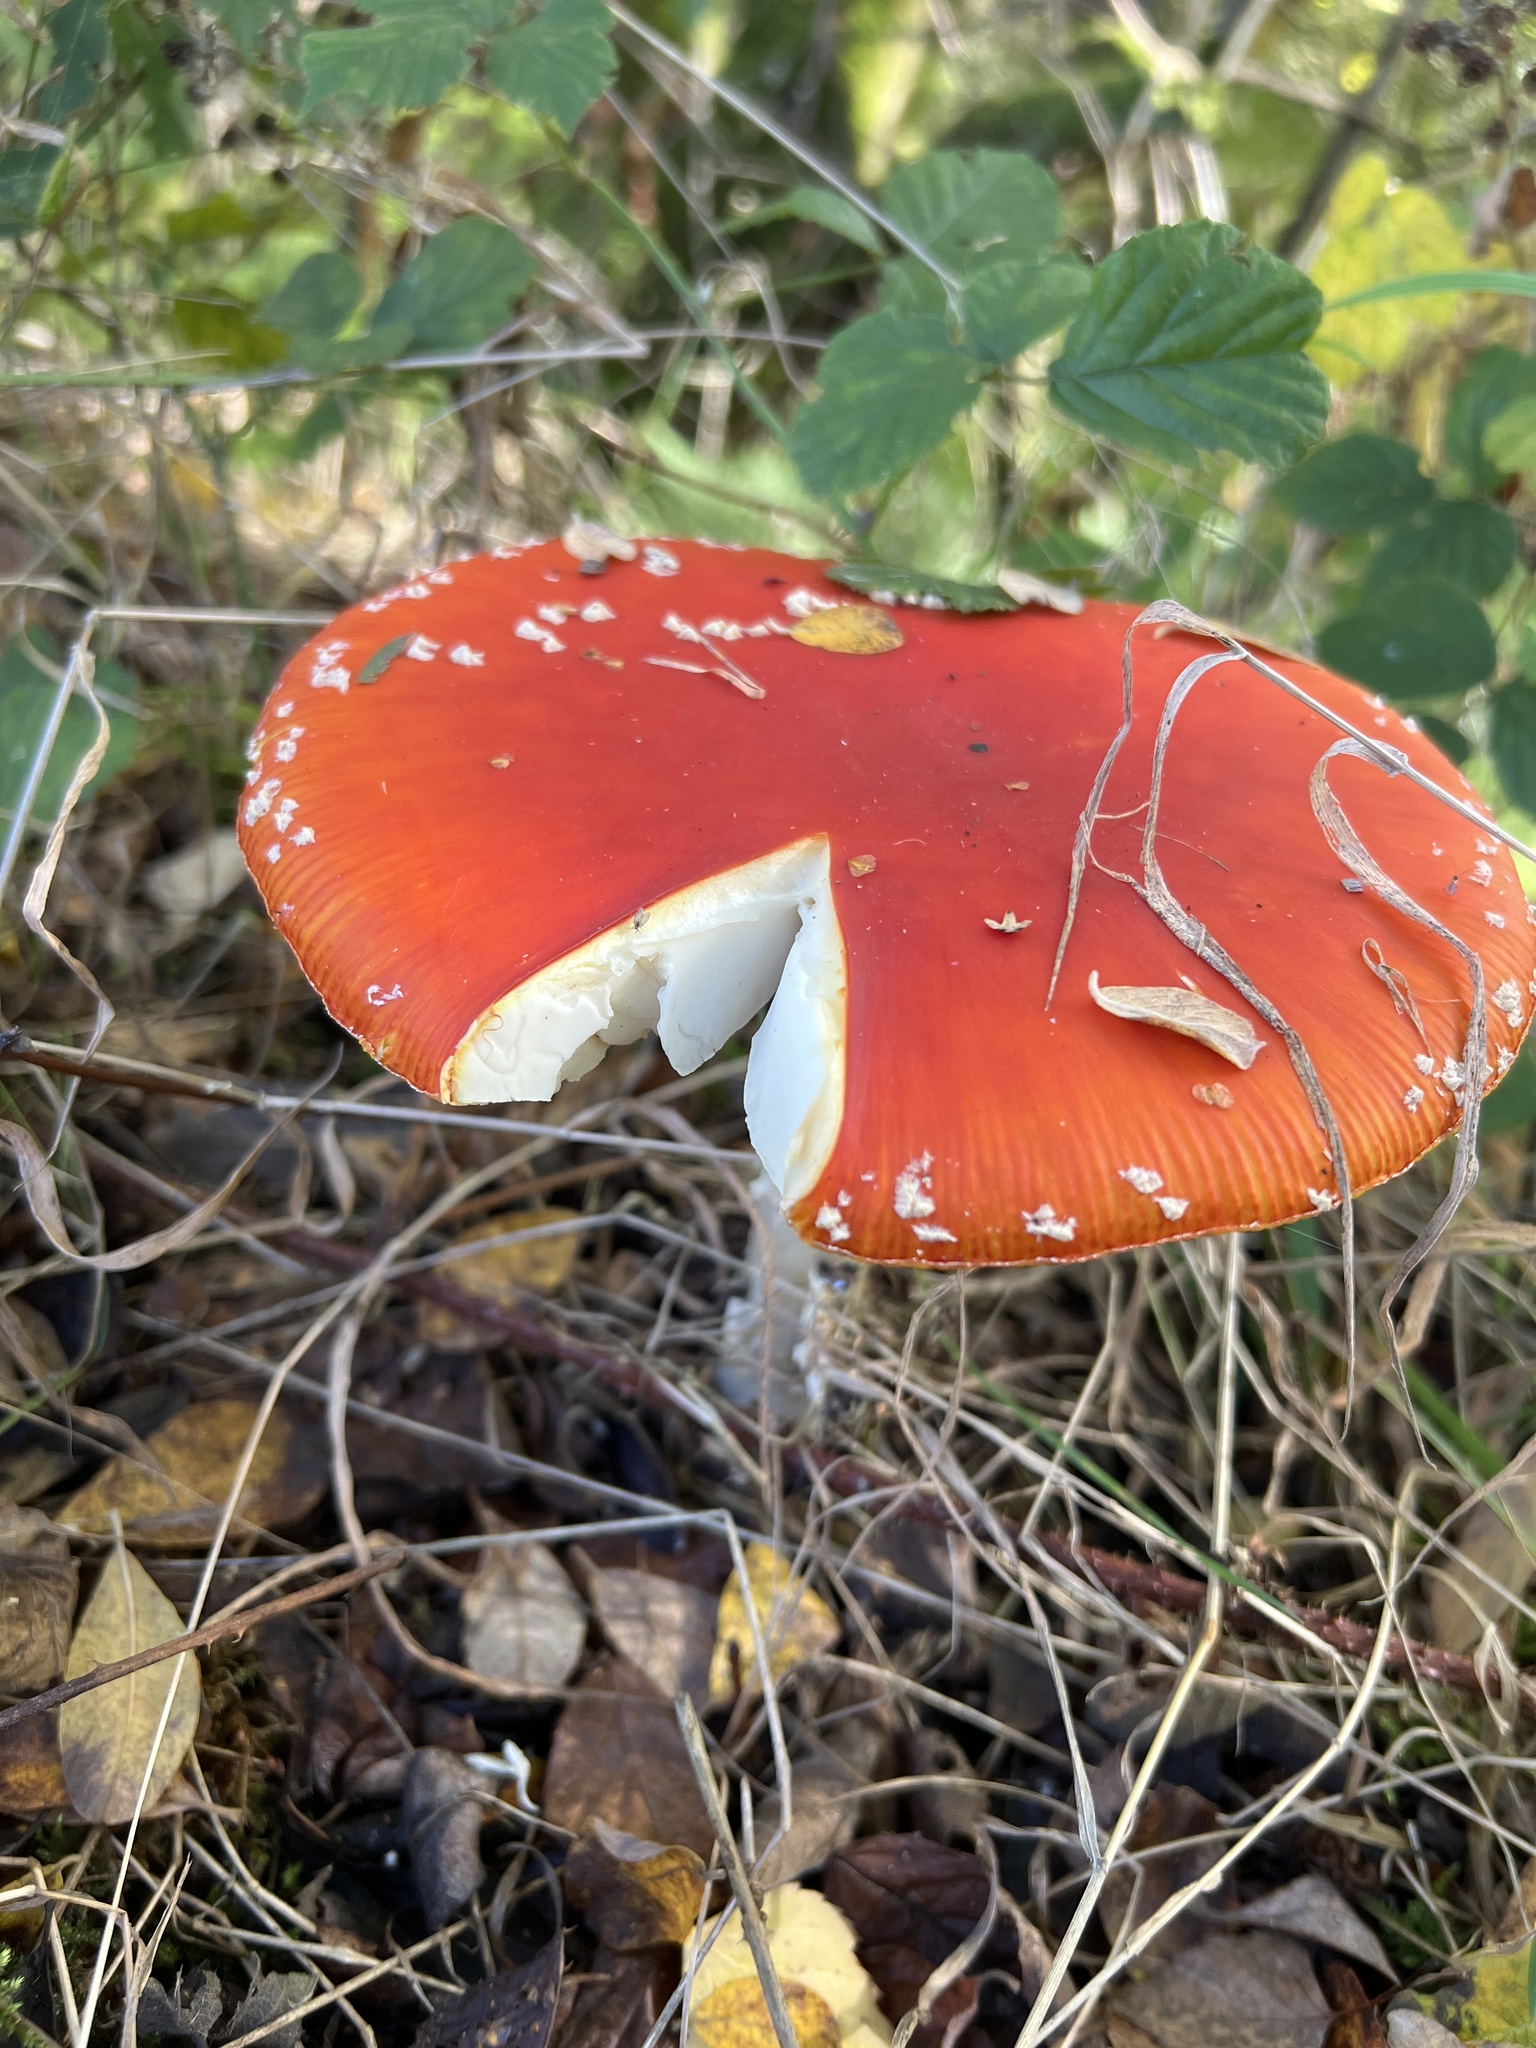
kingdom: Fungi
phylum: Basidiomycota
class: Agaricomycetes
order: Agaricales
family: Amanitaceae
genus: Amanita
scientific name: Amanita muscaria
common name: Fly agaric
